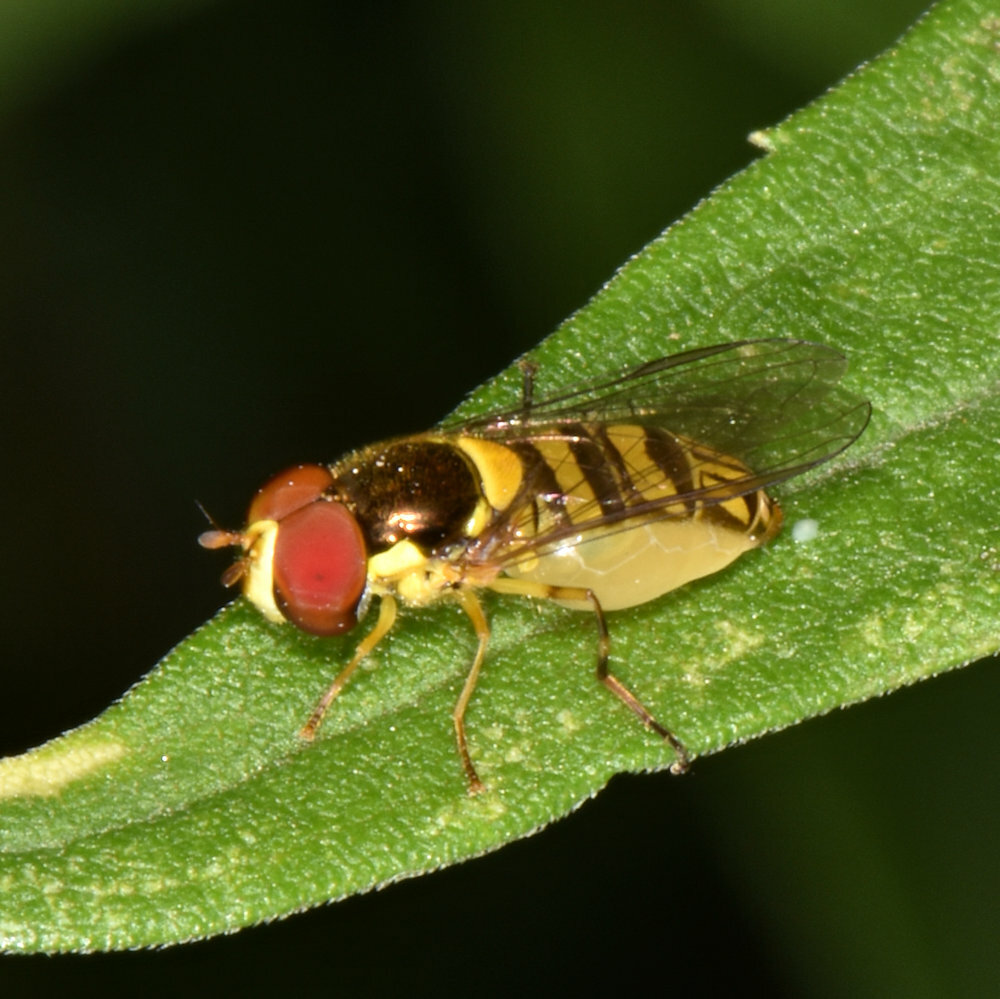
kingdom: Animalia
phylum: Arthropoda
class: Insecta
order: Diptera
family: Syrphidae
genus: Allograpta
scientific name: Allograpta obliqua
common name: Common oblique syrphid
